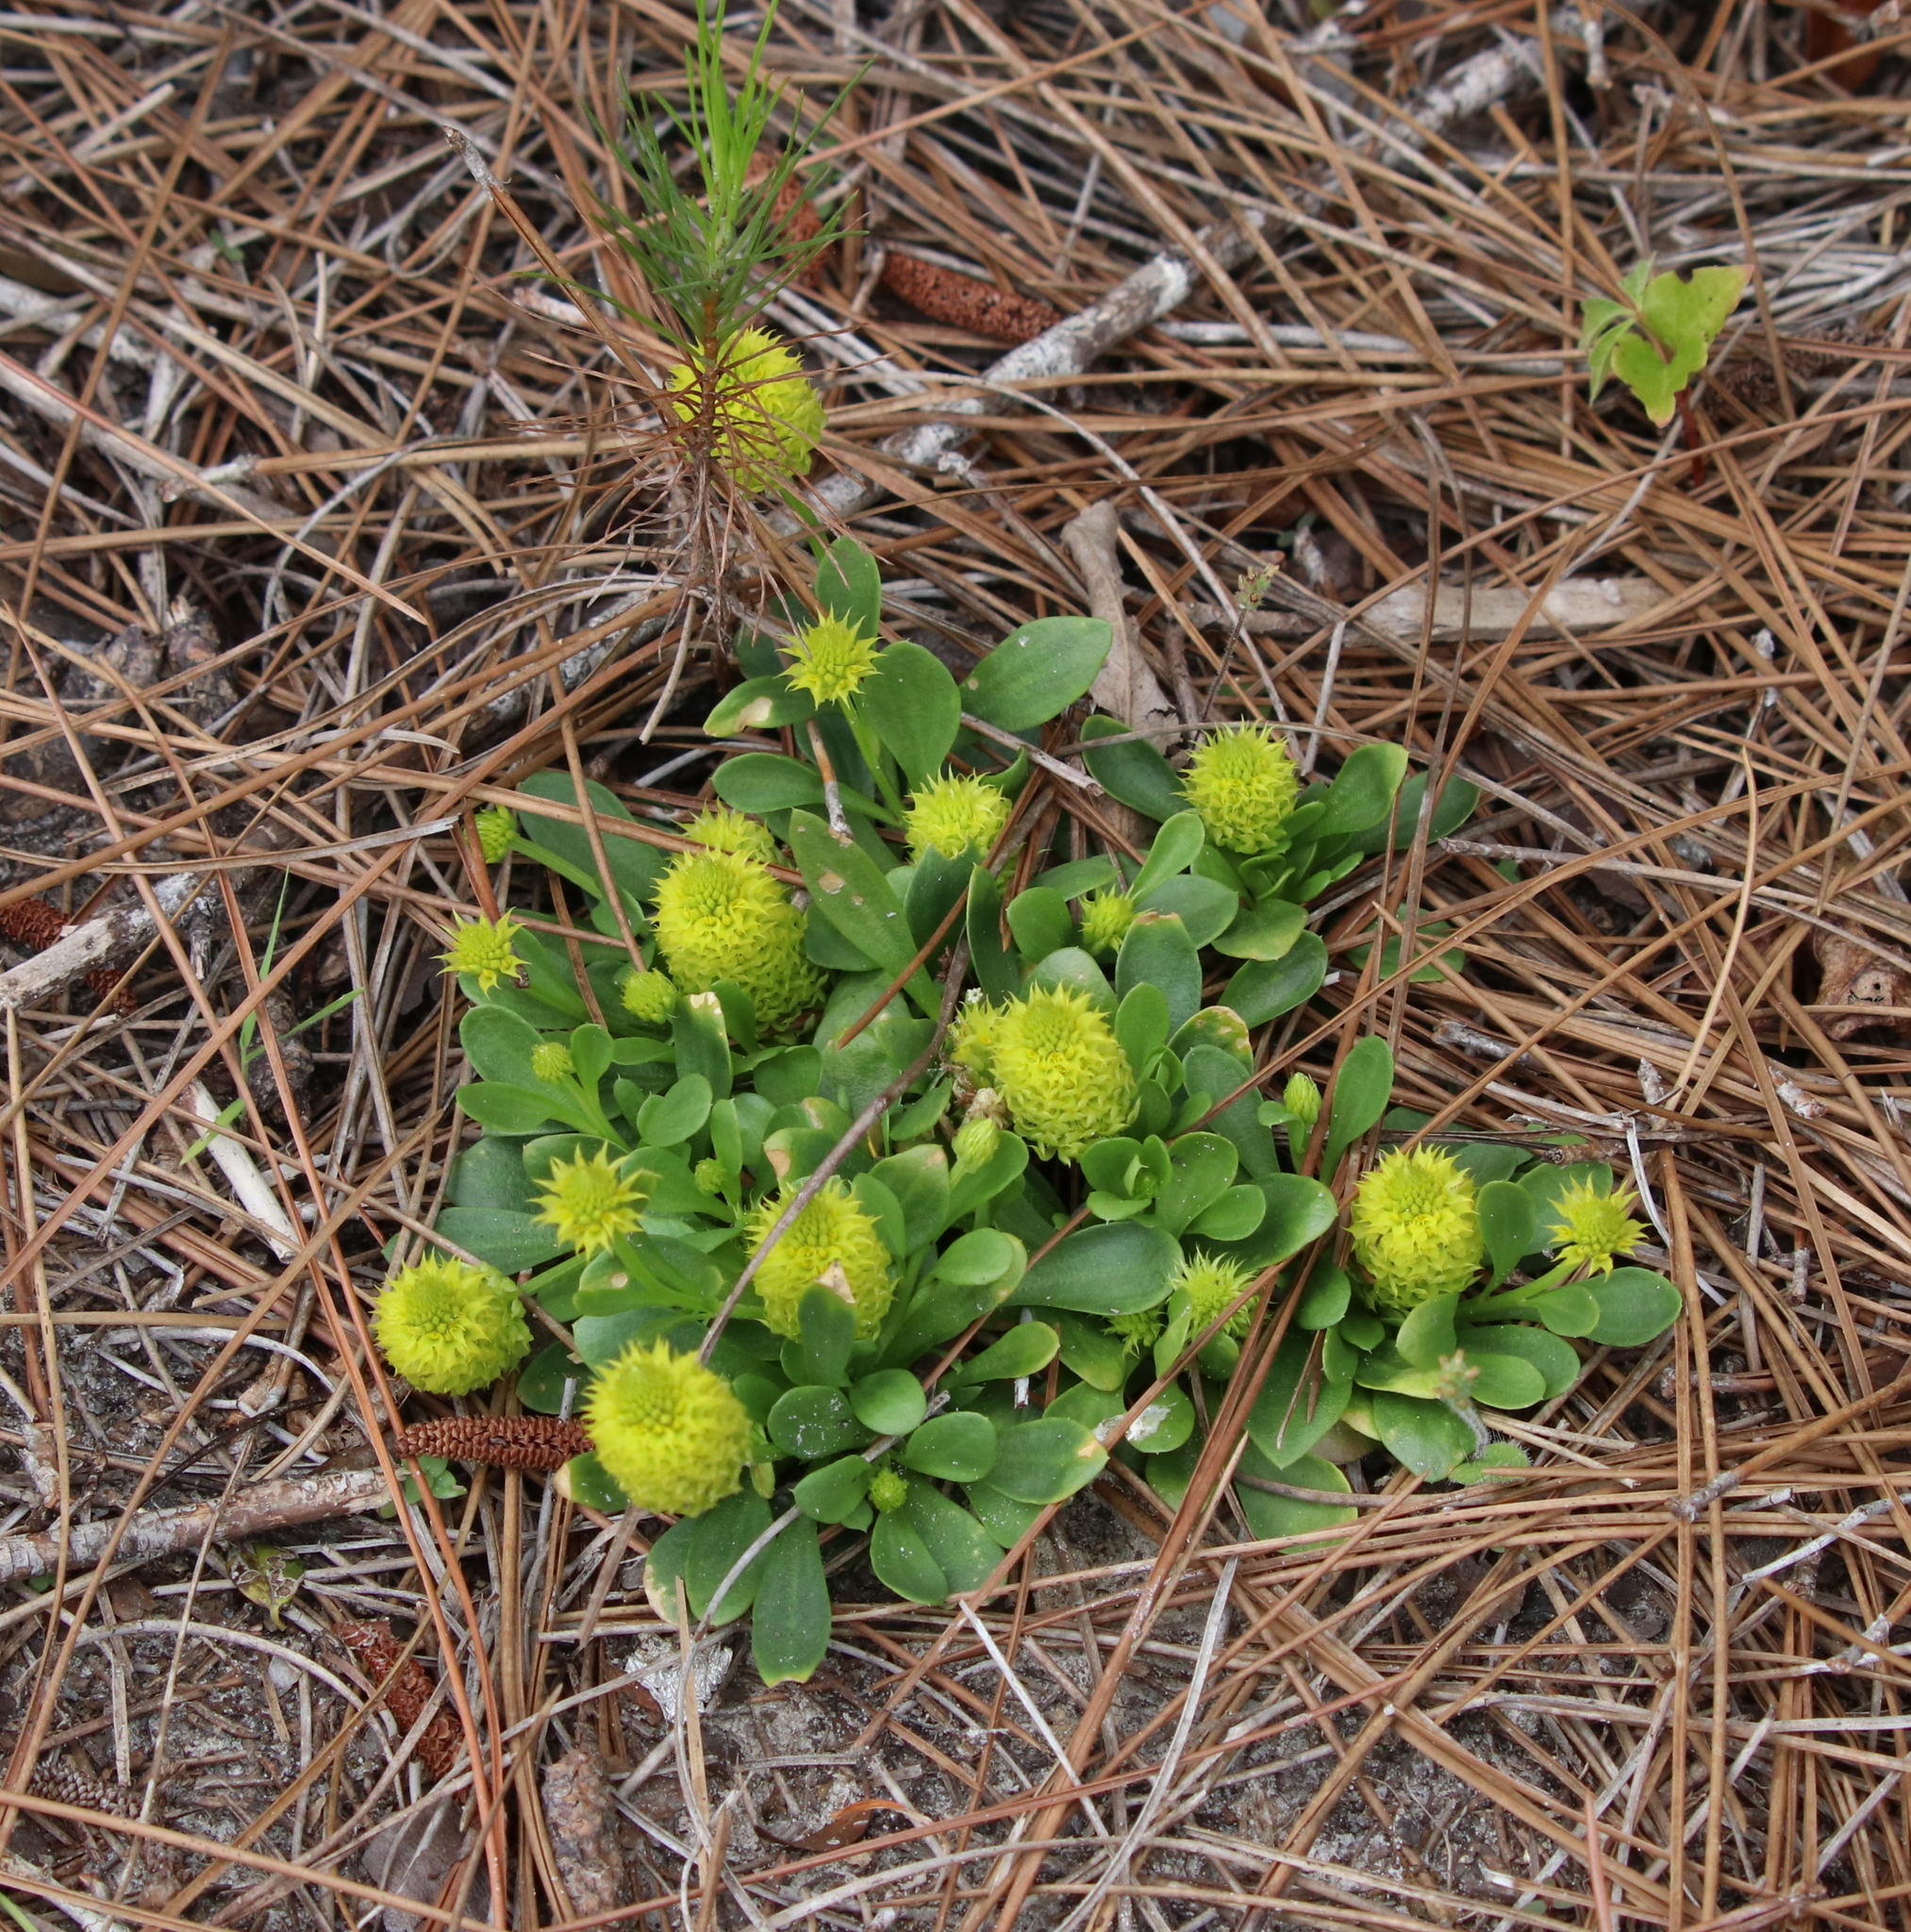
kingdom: Plantae
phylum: Tracheophyta
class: Magnoliopsida
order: Fabales
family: Polygalaceae
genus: Polygala
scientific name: Polygala nana
